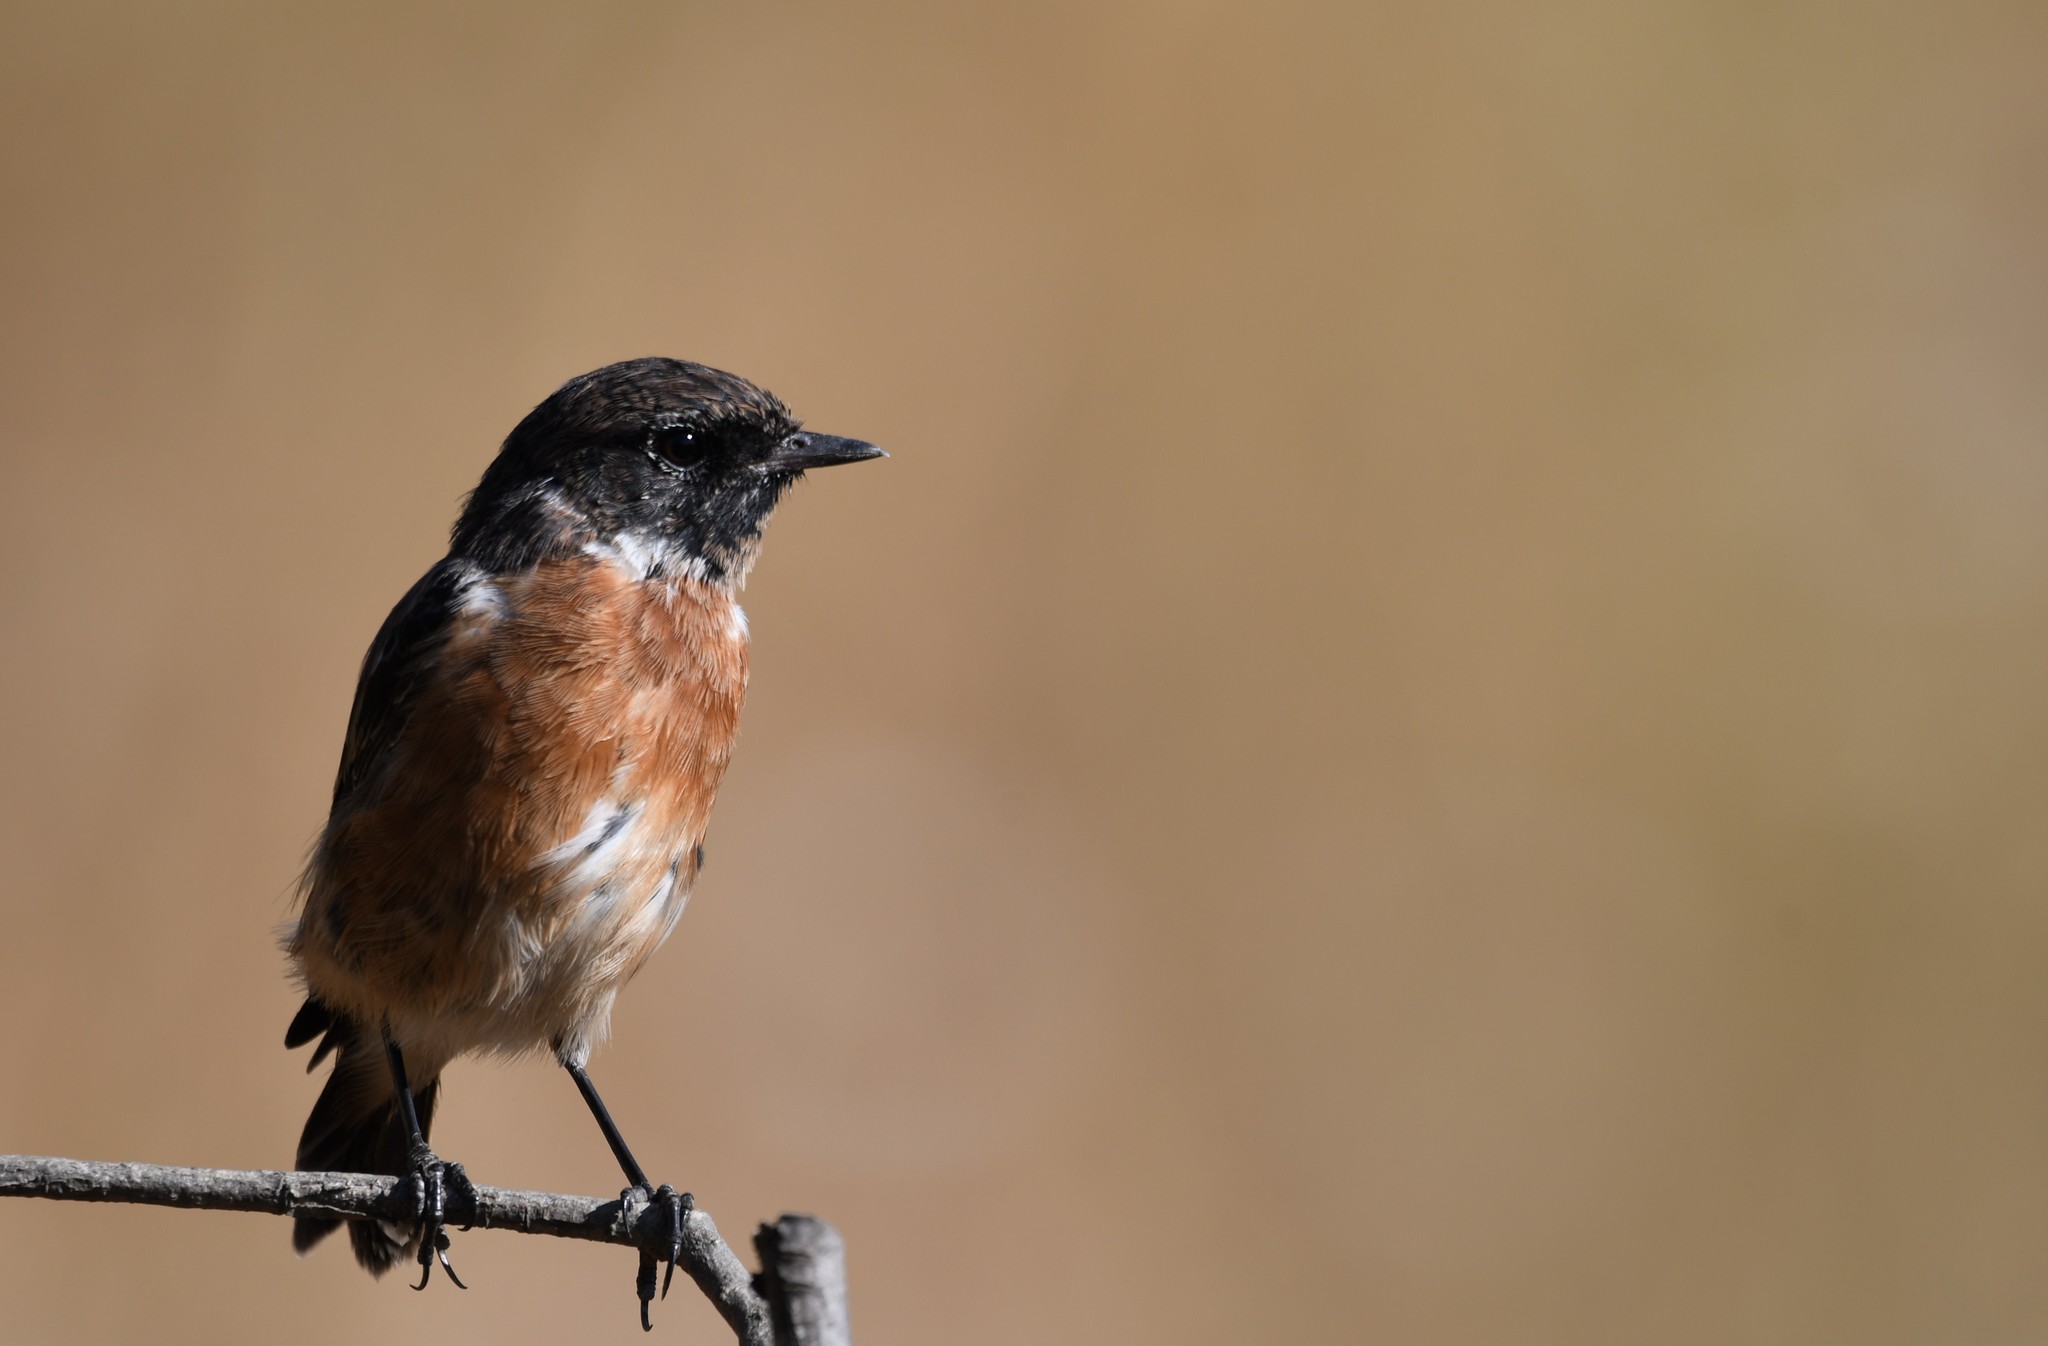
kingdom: Animalia
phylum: Chordata
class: Aves
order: Passeriformes
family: Muscicapidae
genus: Saxicola
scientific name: Saxicola rubicola
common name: European stonechat
